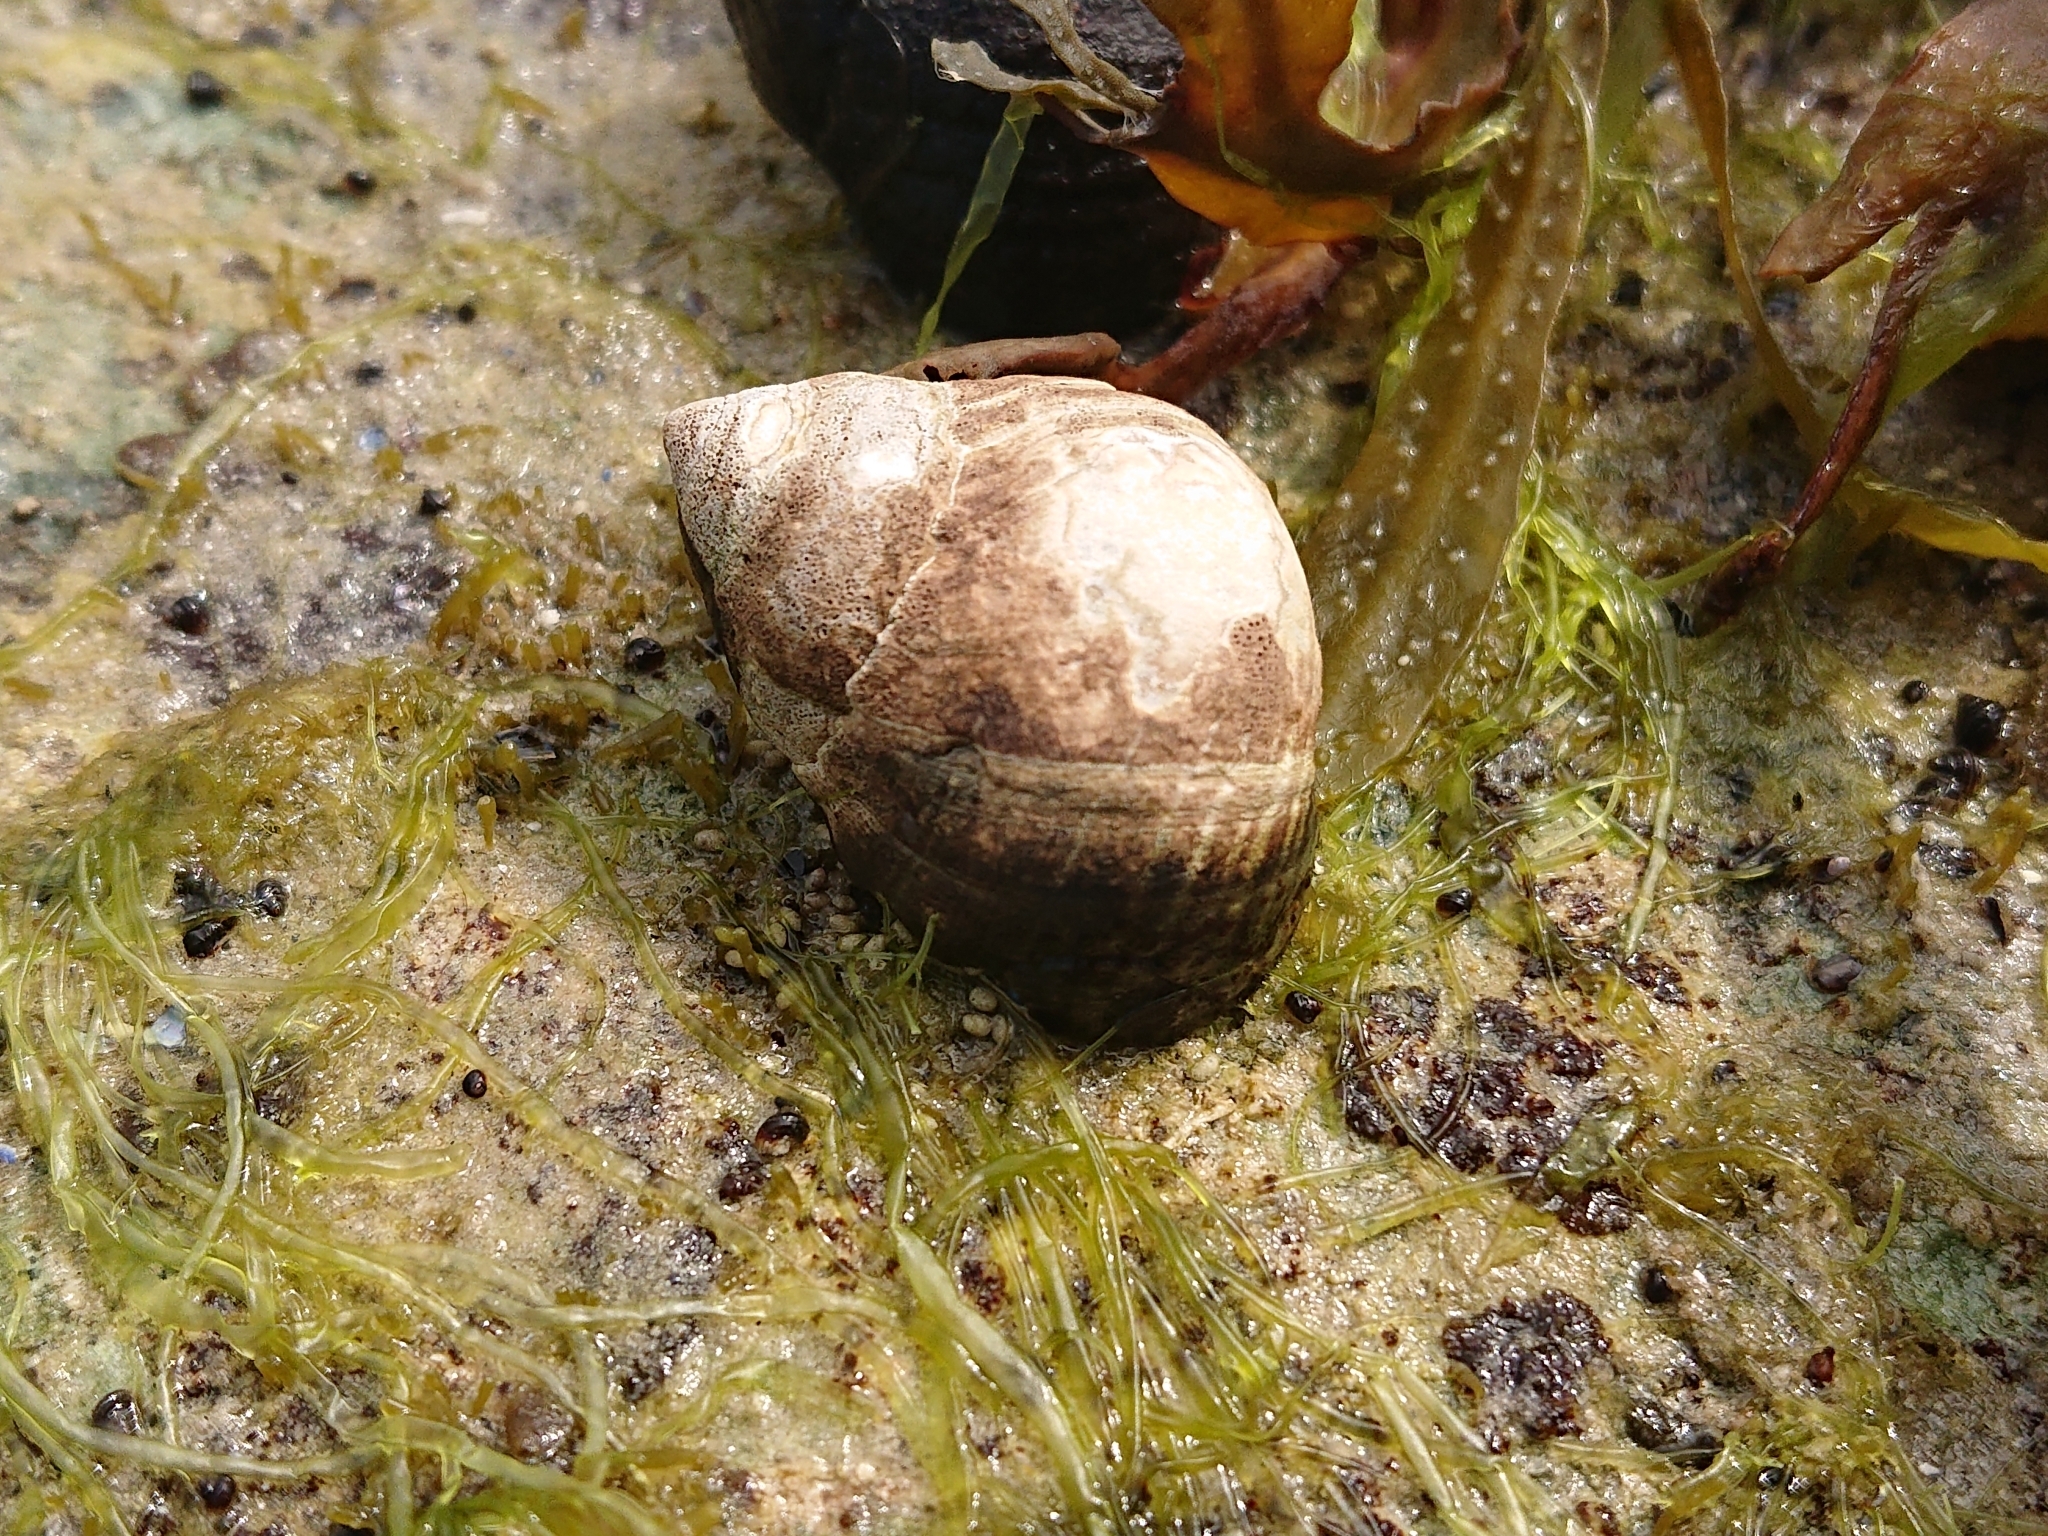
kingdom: Animalia
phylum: Mollusca
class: Gastropoda
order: Littorinimorpha
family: Littorinidae
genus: Littorina
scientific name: Littorina littorea
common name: Common periwinkle
